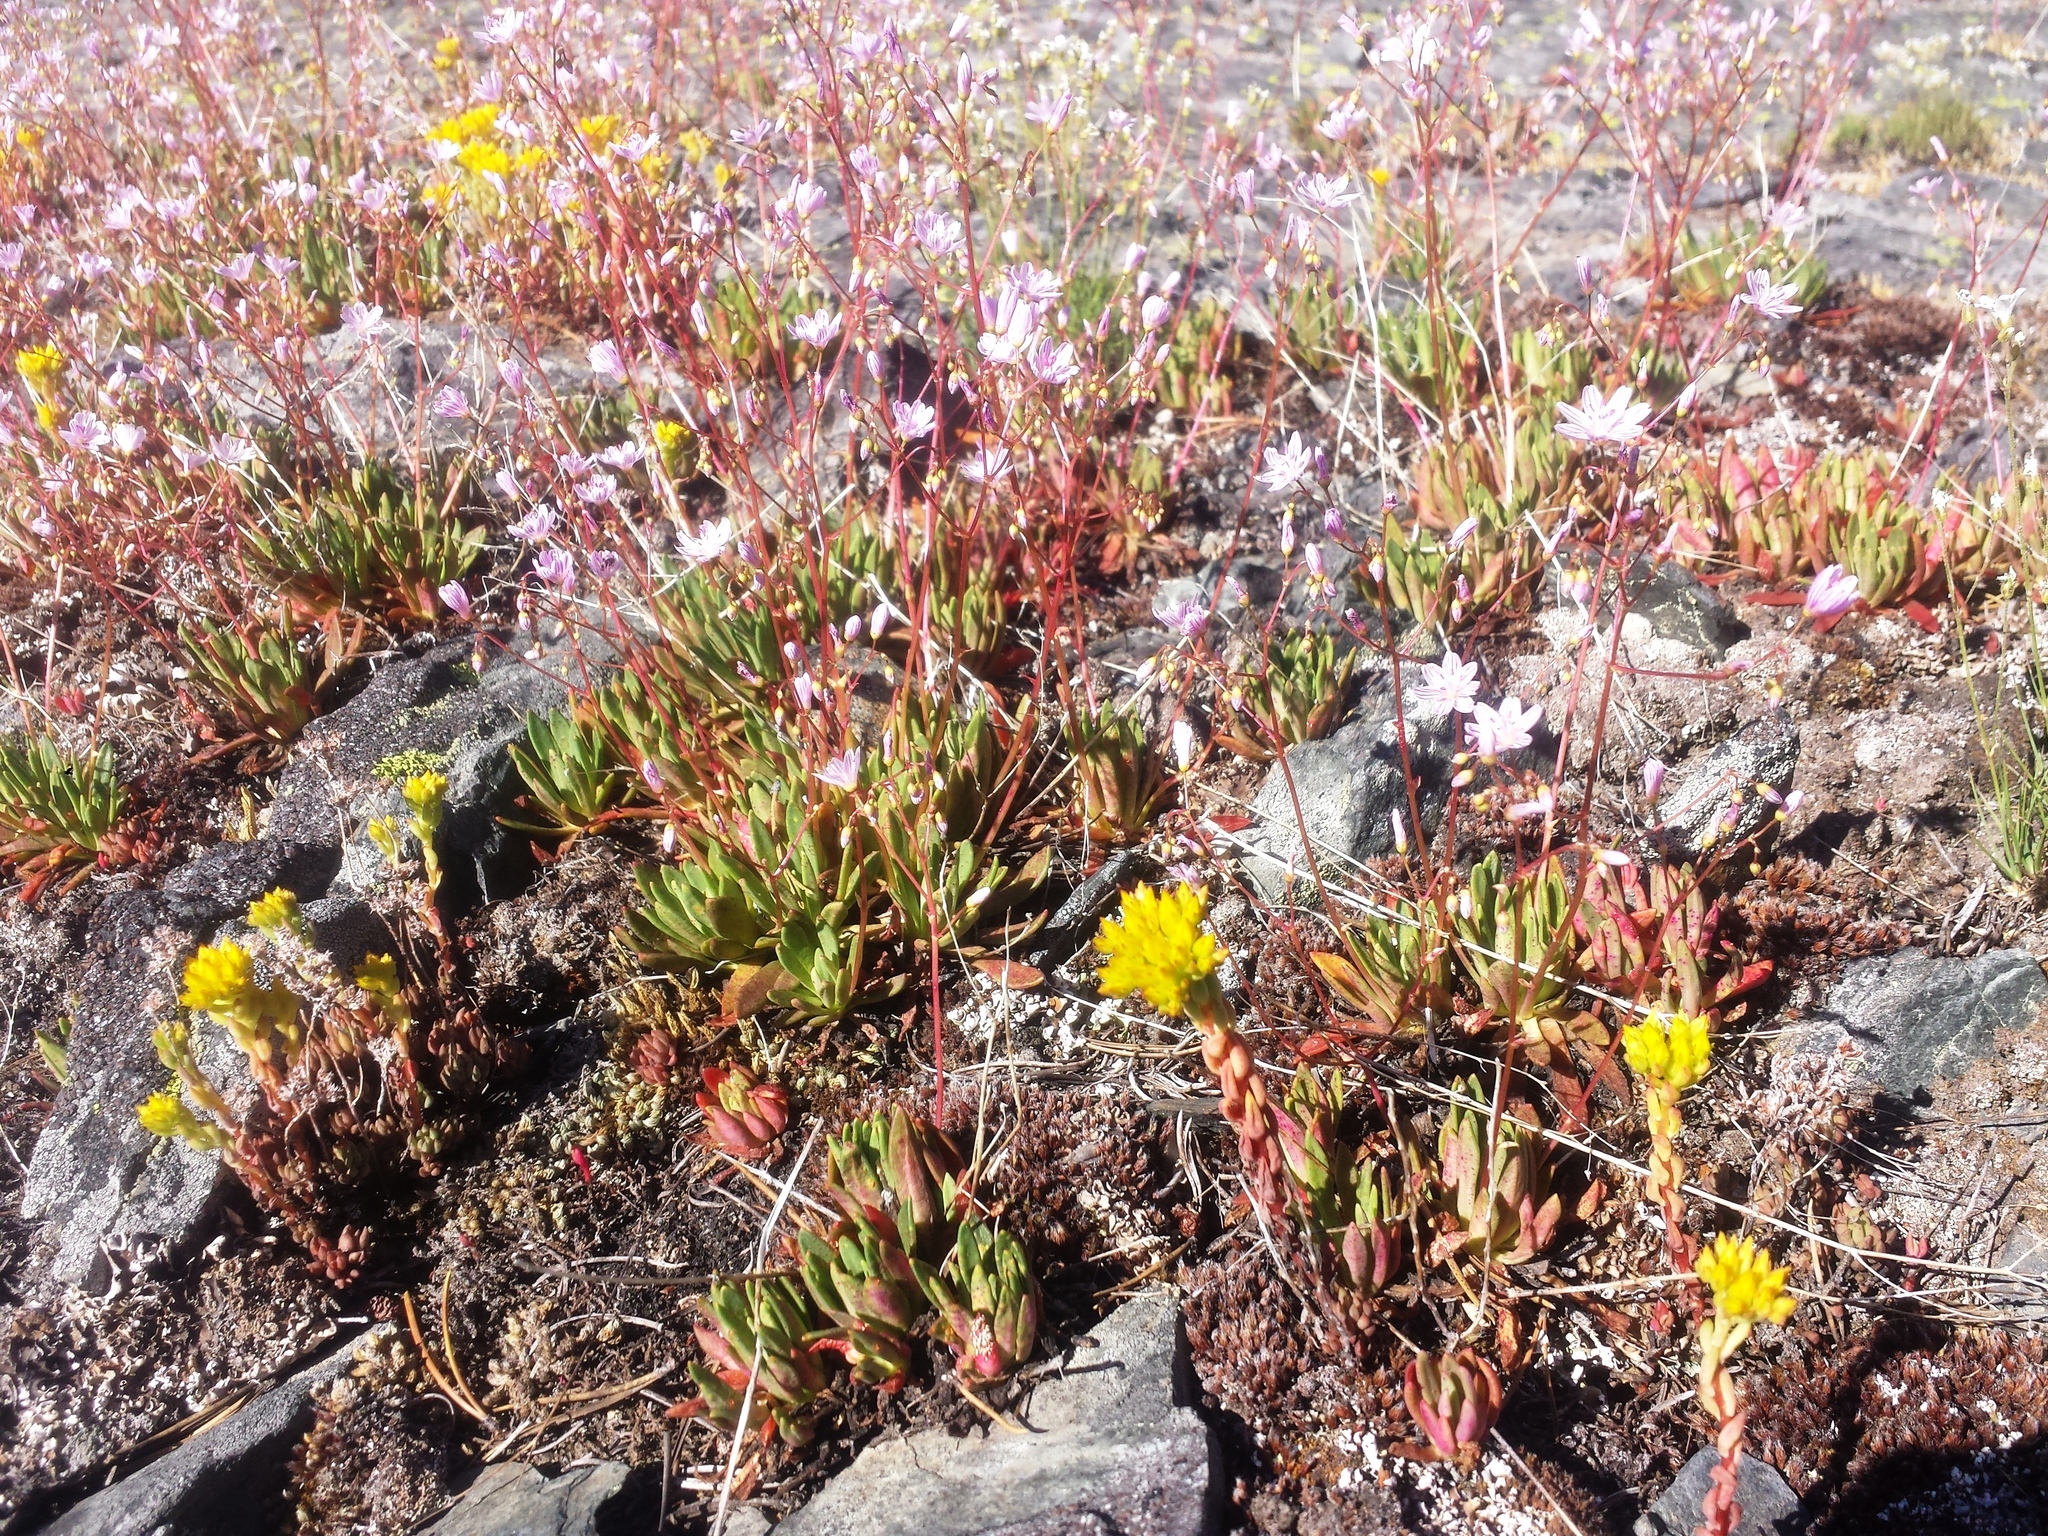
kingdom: Plantae
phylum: Tracheophyta
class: Magnoliopsida
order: Caryophyllales
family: Montiaceae
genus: Lewisia
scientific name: Lewisia columbiana
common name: Columbia lewisia
